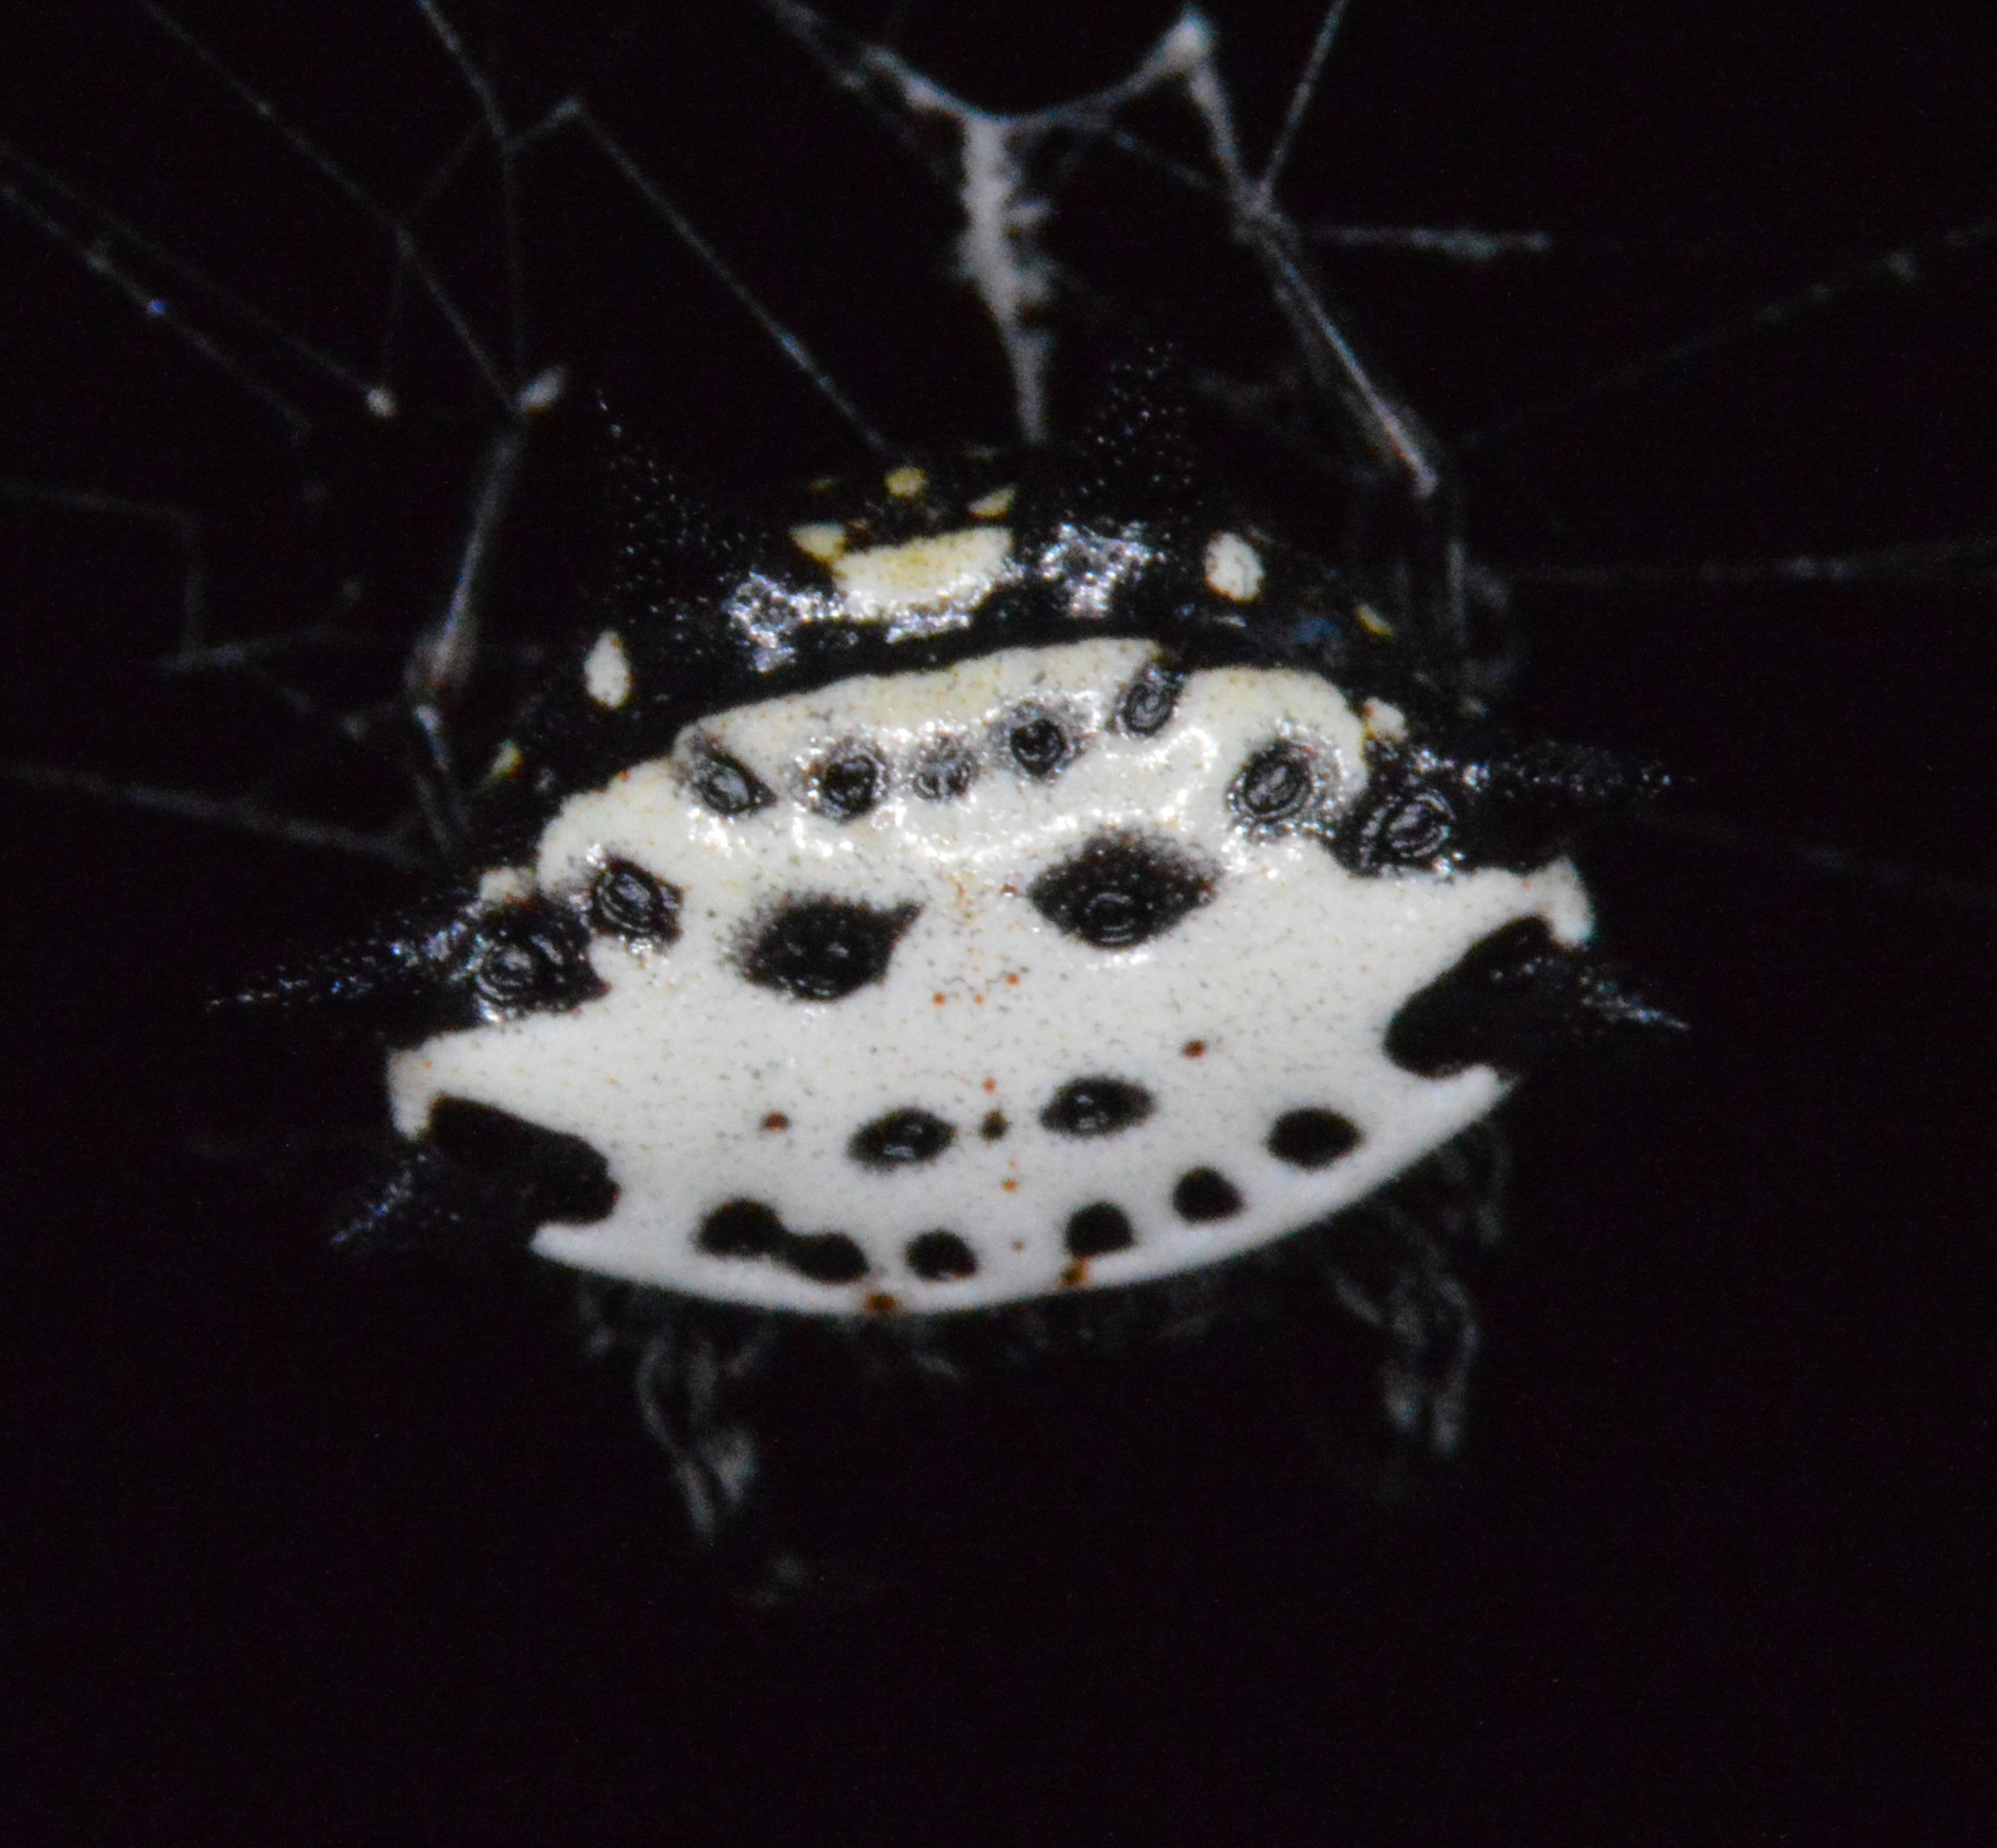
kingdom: Animalia
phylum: Arthropoda
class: Arachnida
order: Araneae
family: Araneidae
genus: Gasteracantha
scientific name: Gasteracantha cancriformis
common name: Orb weavers
